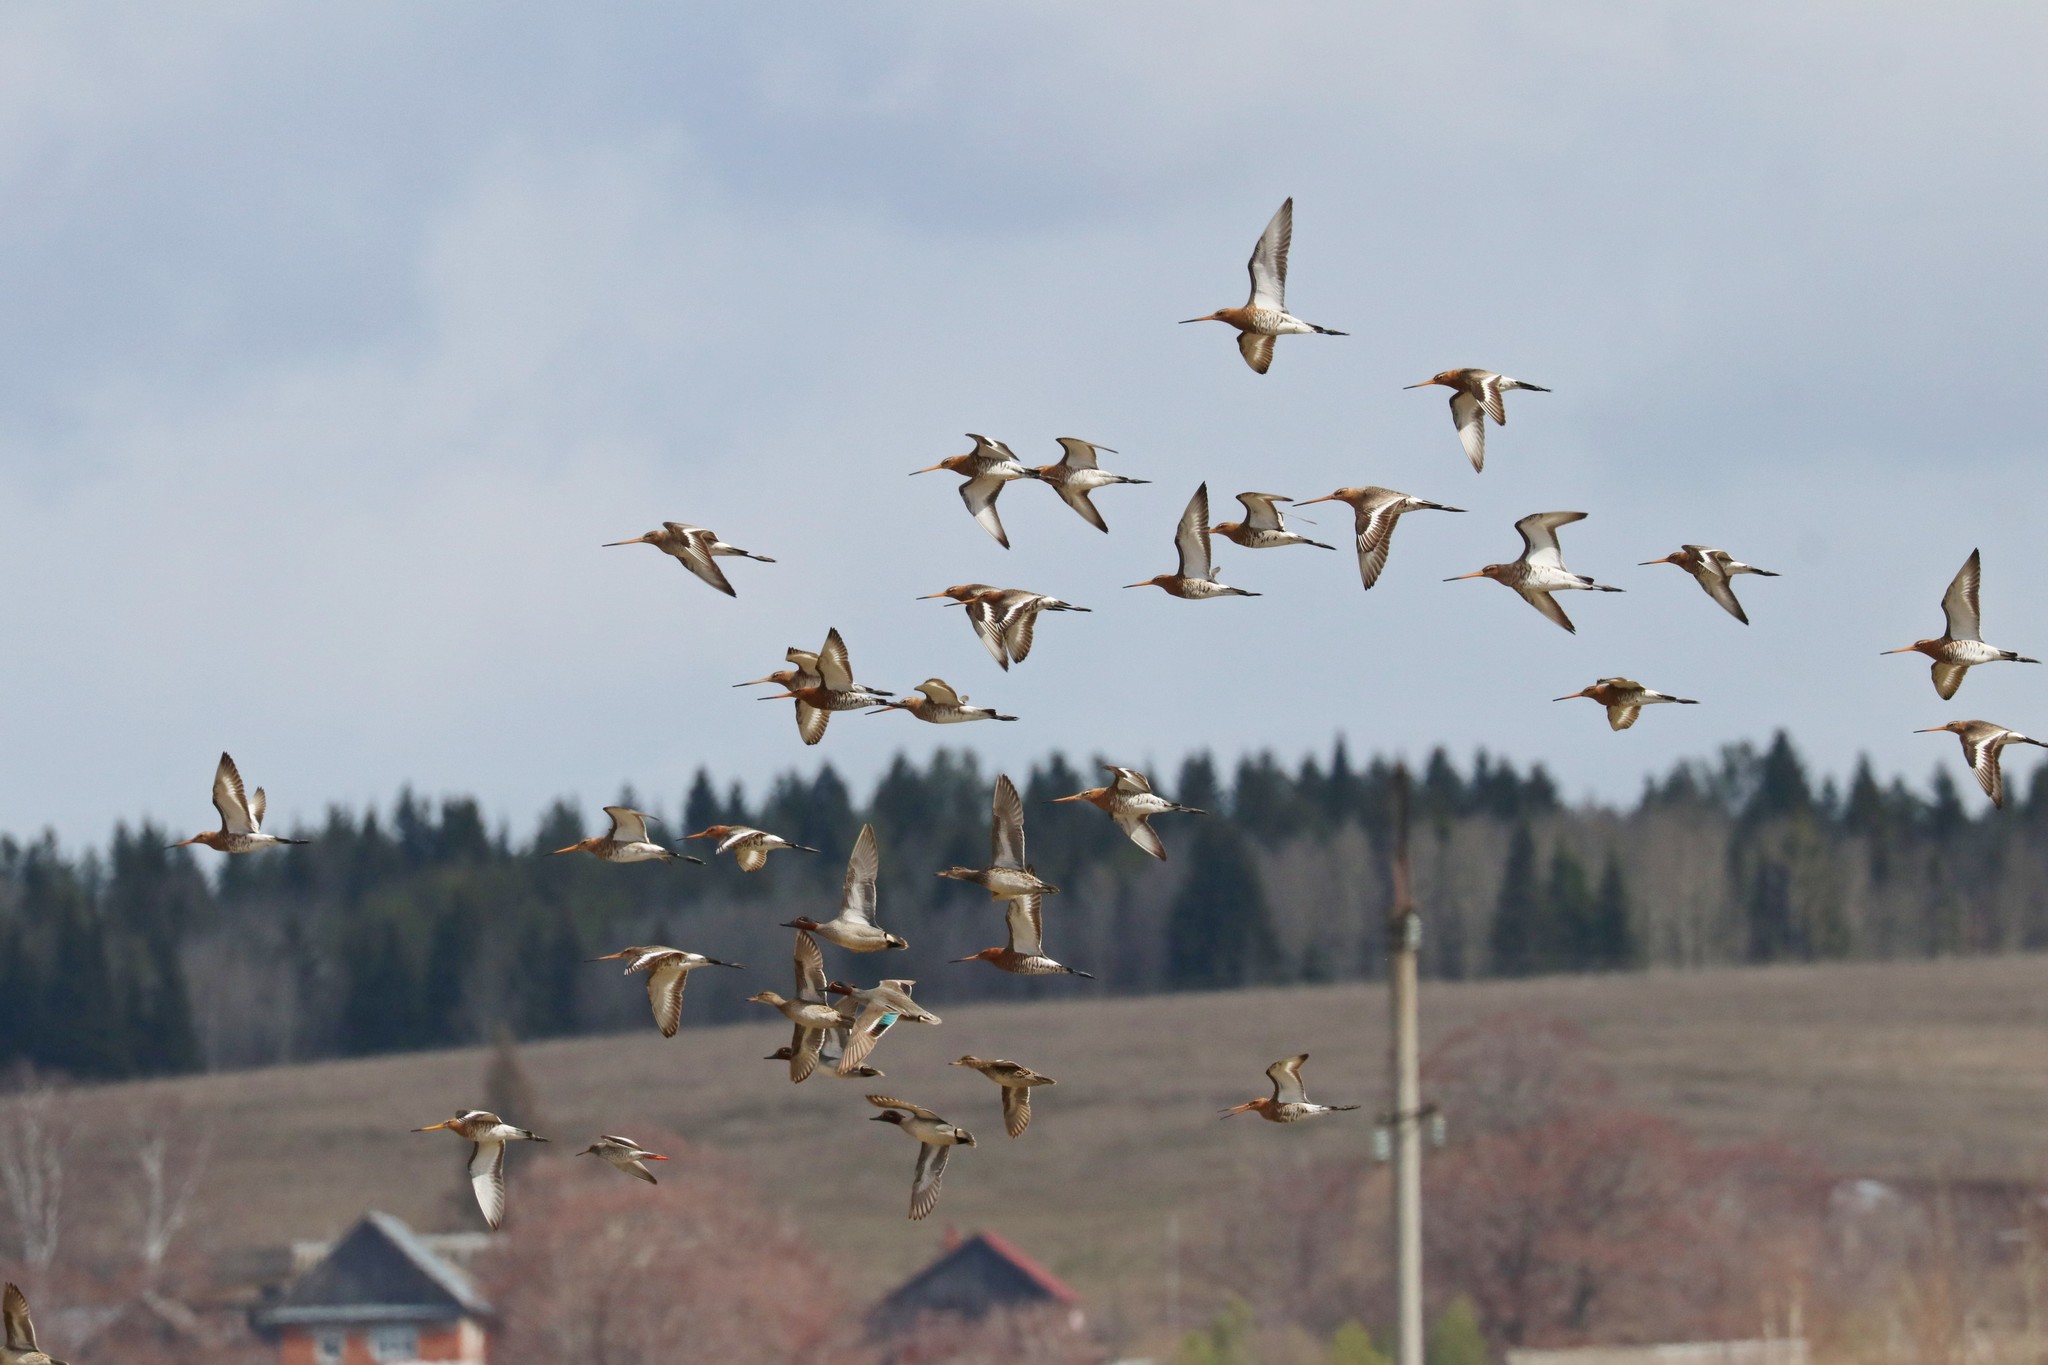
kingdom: Animalia
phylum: Chordata
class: Aves
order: Charadriiformes
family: Scolopacidae
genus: Limosa
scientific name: Limosa limosa
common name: Black-tailed godwit
